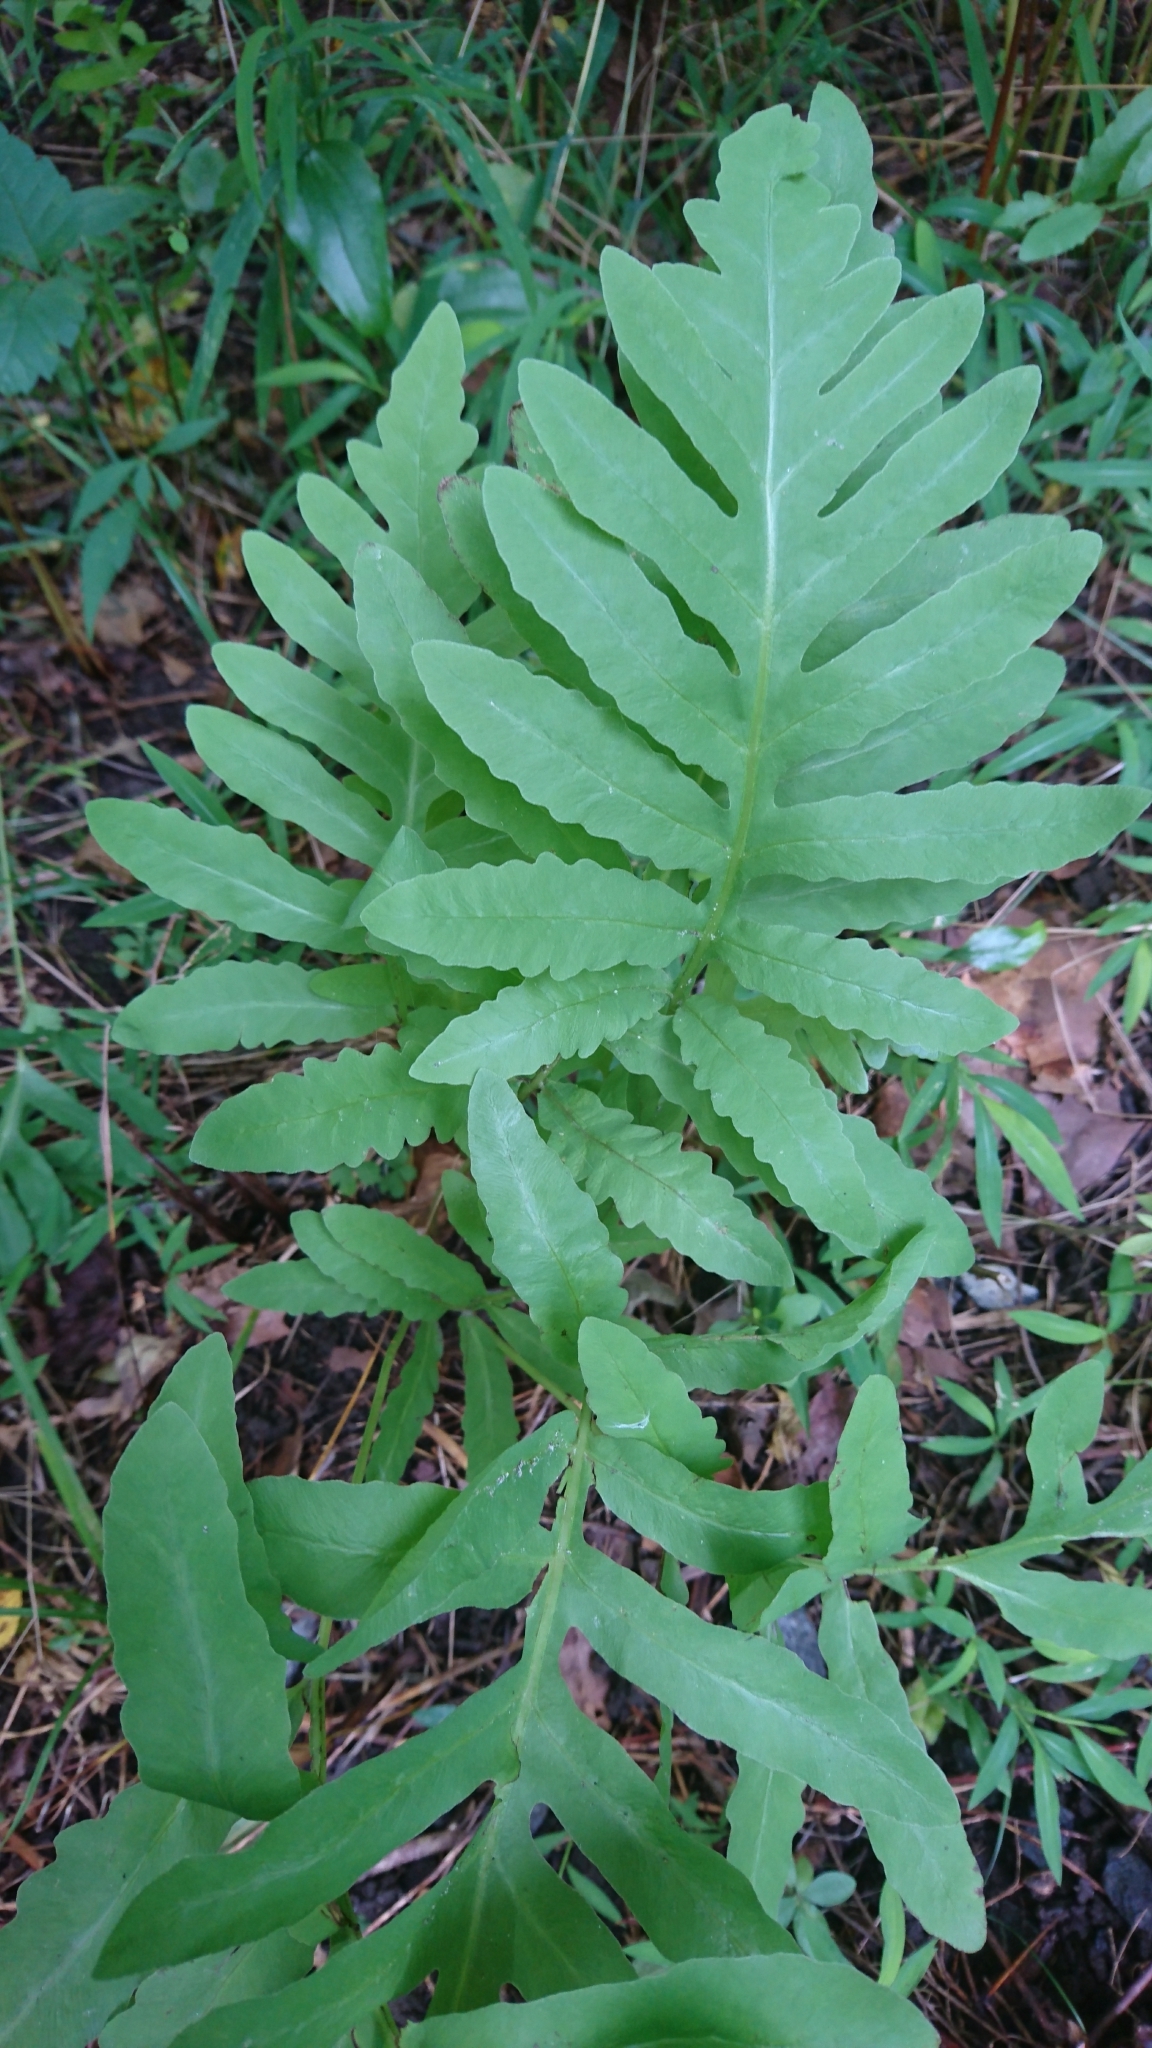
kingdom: Plantae
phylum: Tracheophyta
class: Polypodiopsida
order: Polypodiales
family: Onocleaceae
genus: Onoclea
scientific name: Onoclea sensibilis
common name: Sensitive fern
